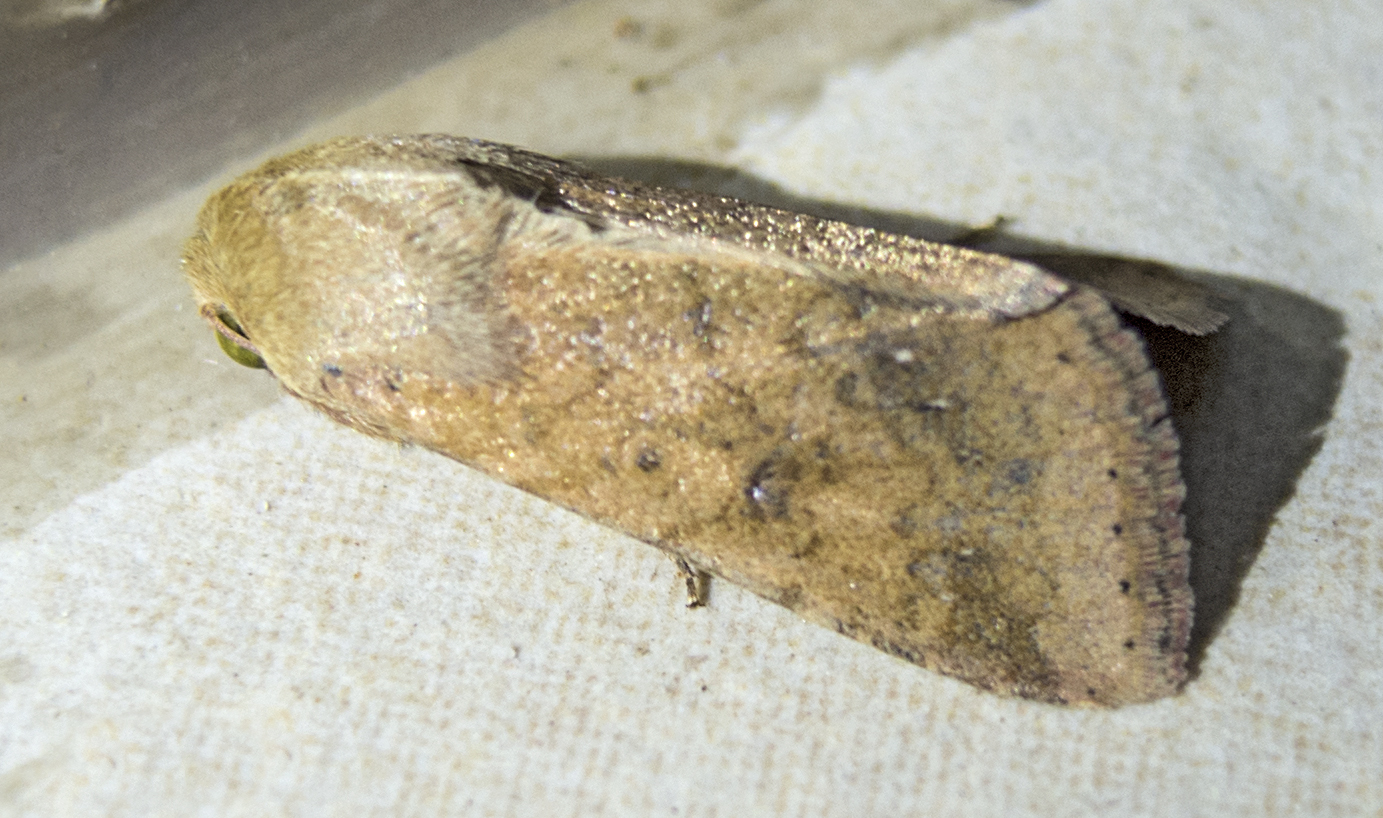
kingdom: Animalia
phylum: Arthropoda
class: Insecta
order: Lepidoptera
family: Noctuidae
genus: Helicoverpa
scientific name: Helicoverpa armigera
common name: Cotton bollworm
